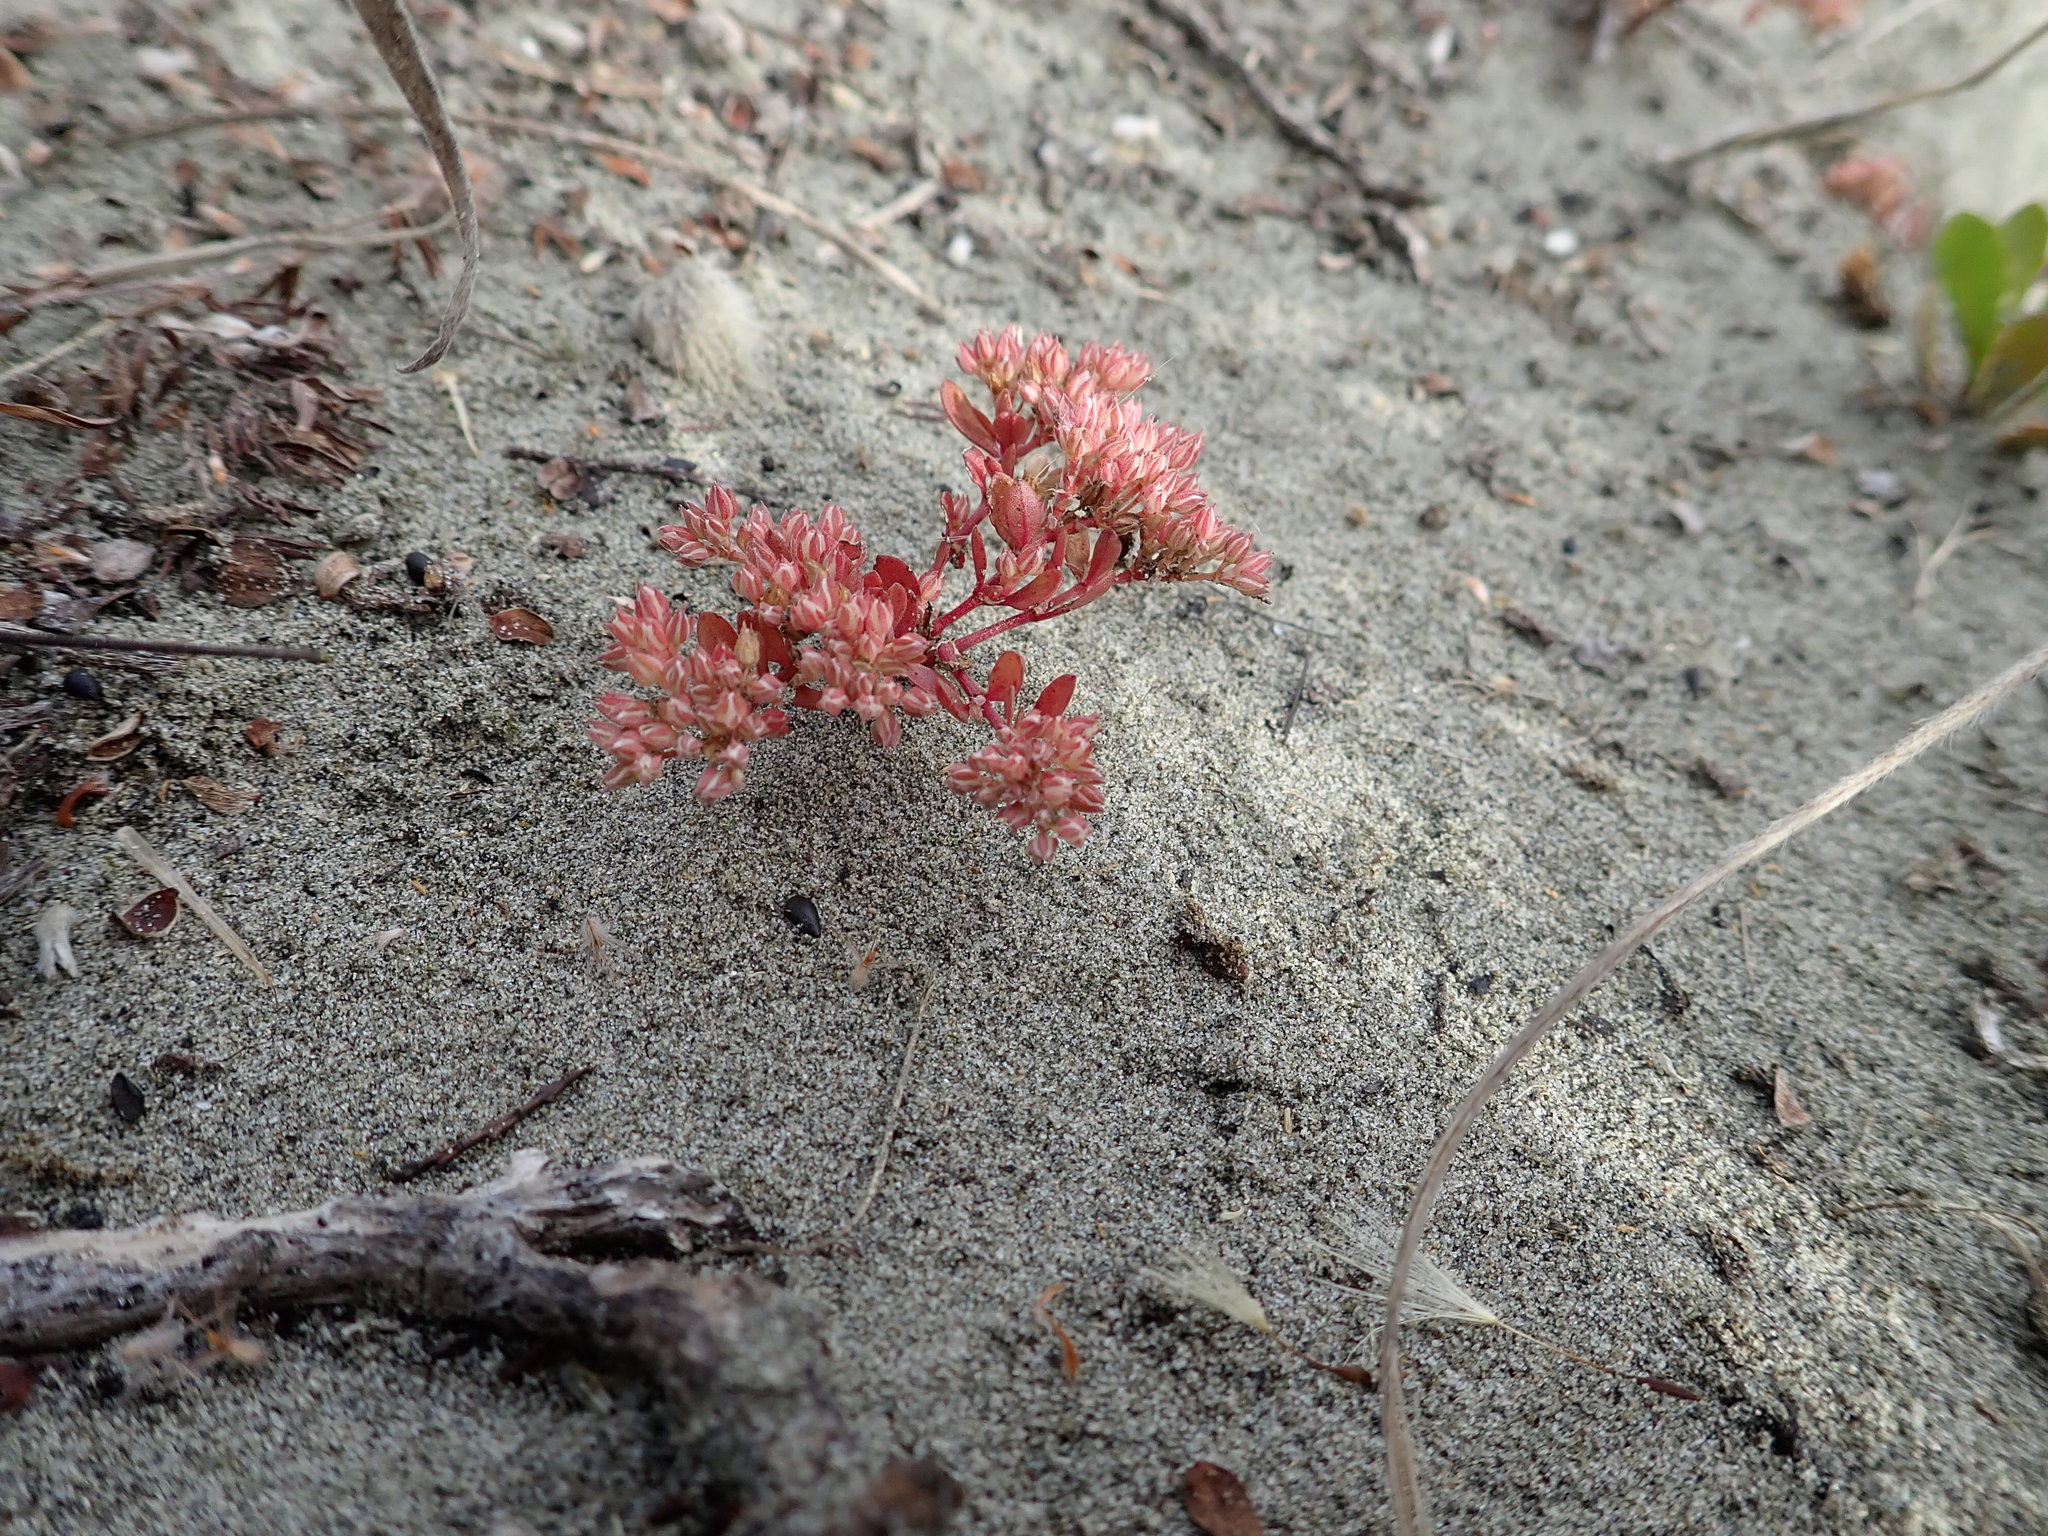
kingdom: Plantae
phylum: Tracheophyta
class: Magnoliopsida
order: Caryophyllales
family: Caryophyllaceae
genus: Polycarpon
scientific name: Polycarpon tetraphyllum
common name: Four-leaved all-seed
